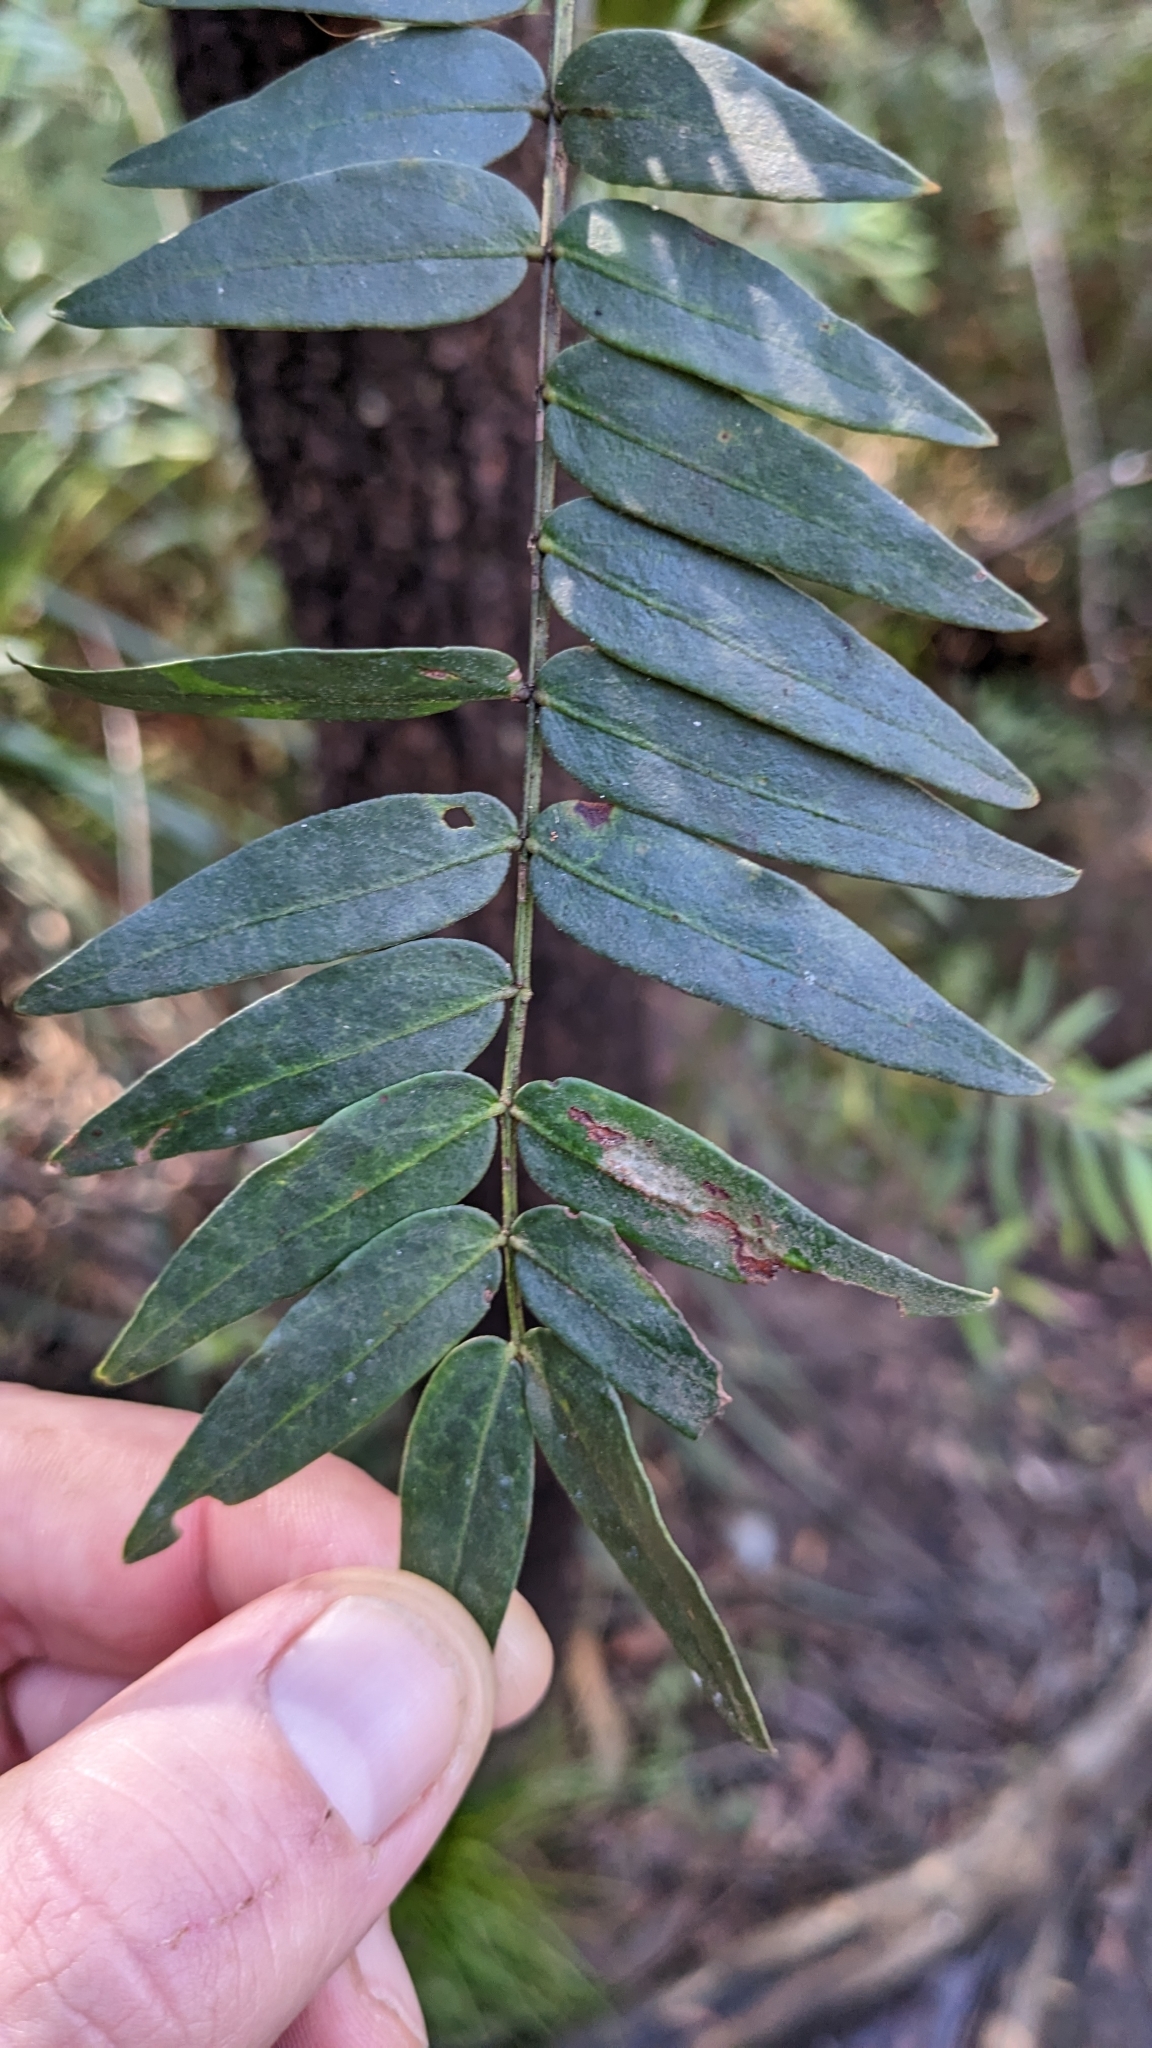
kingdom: Plantae
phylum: Tracheophyta
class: Magnoliopsida
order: Fabales
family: Fabaceae
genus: Acacia
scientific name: Acacia elata
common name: Cedar wattle
